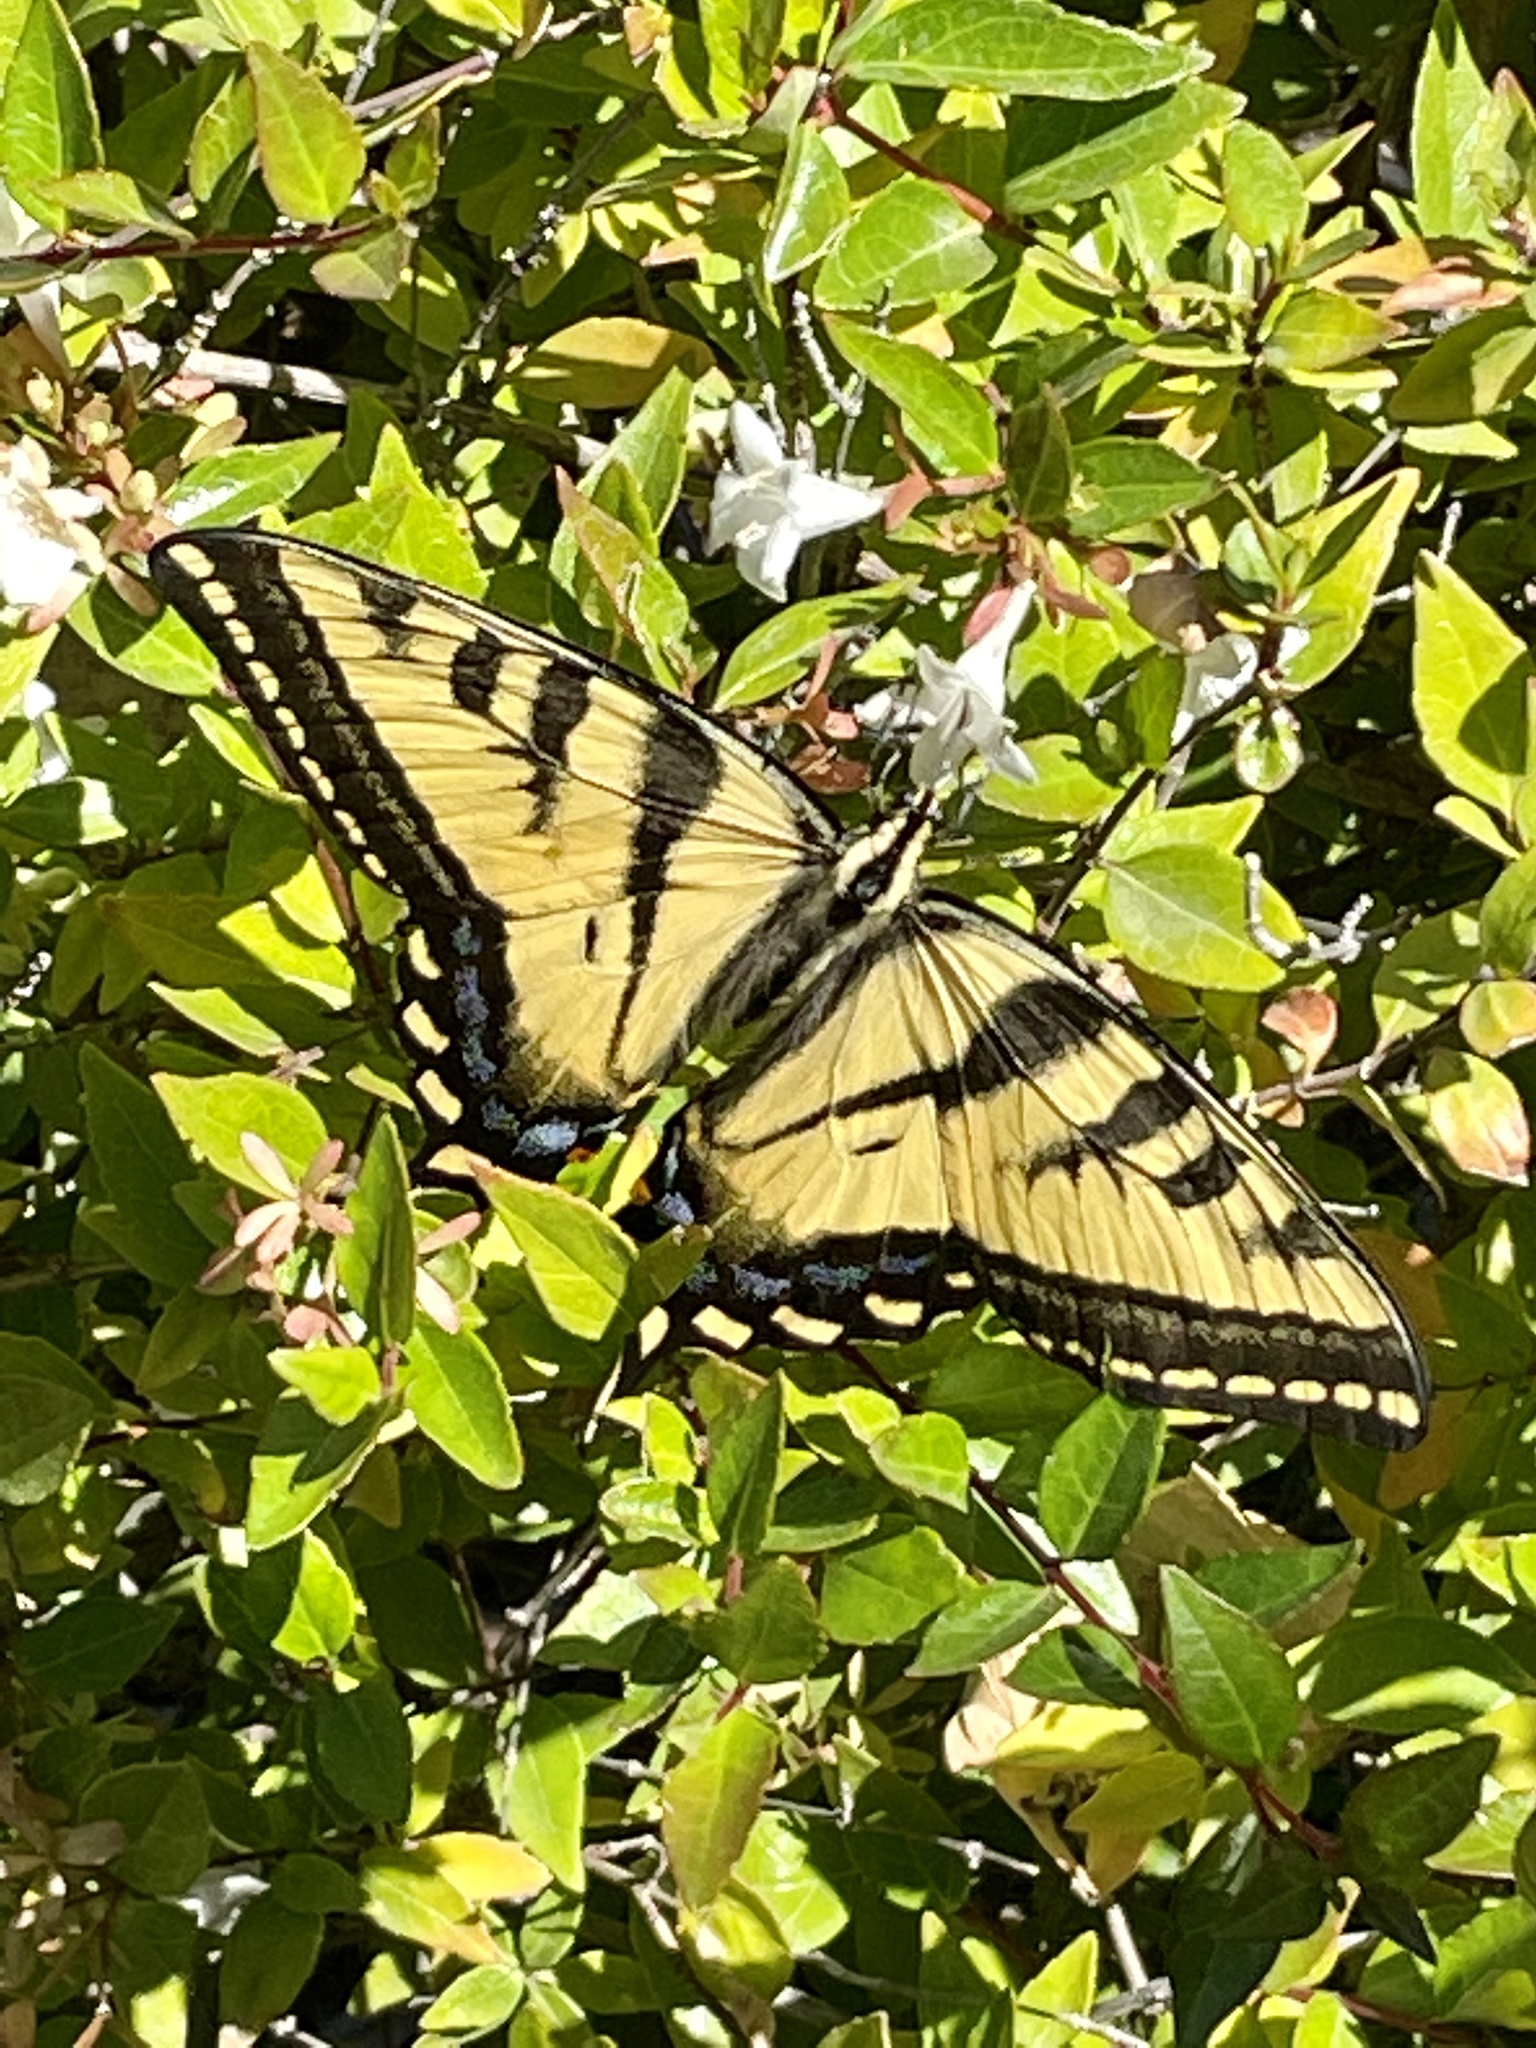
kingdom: Animalia
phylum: Arthropoda
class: Insecta
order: Lepidoptera
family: Papilionidae
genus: Papilio
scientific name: Papilio rutulus
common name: Western tiger swallowtail
